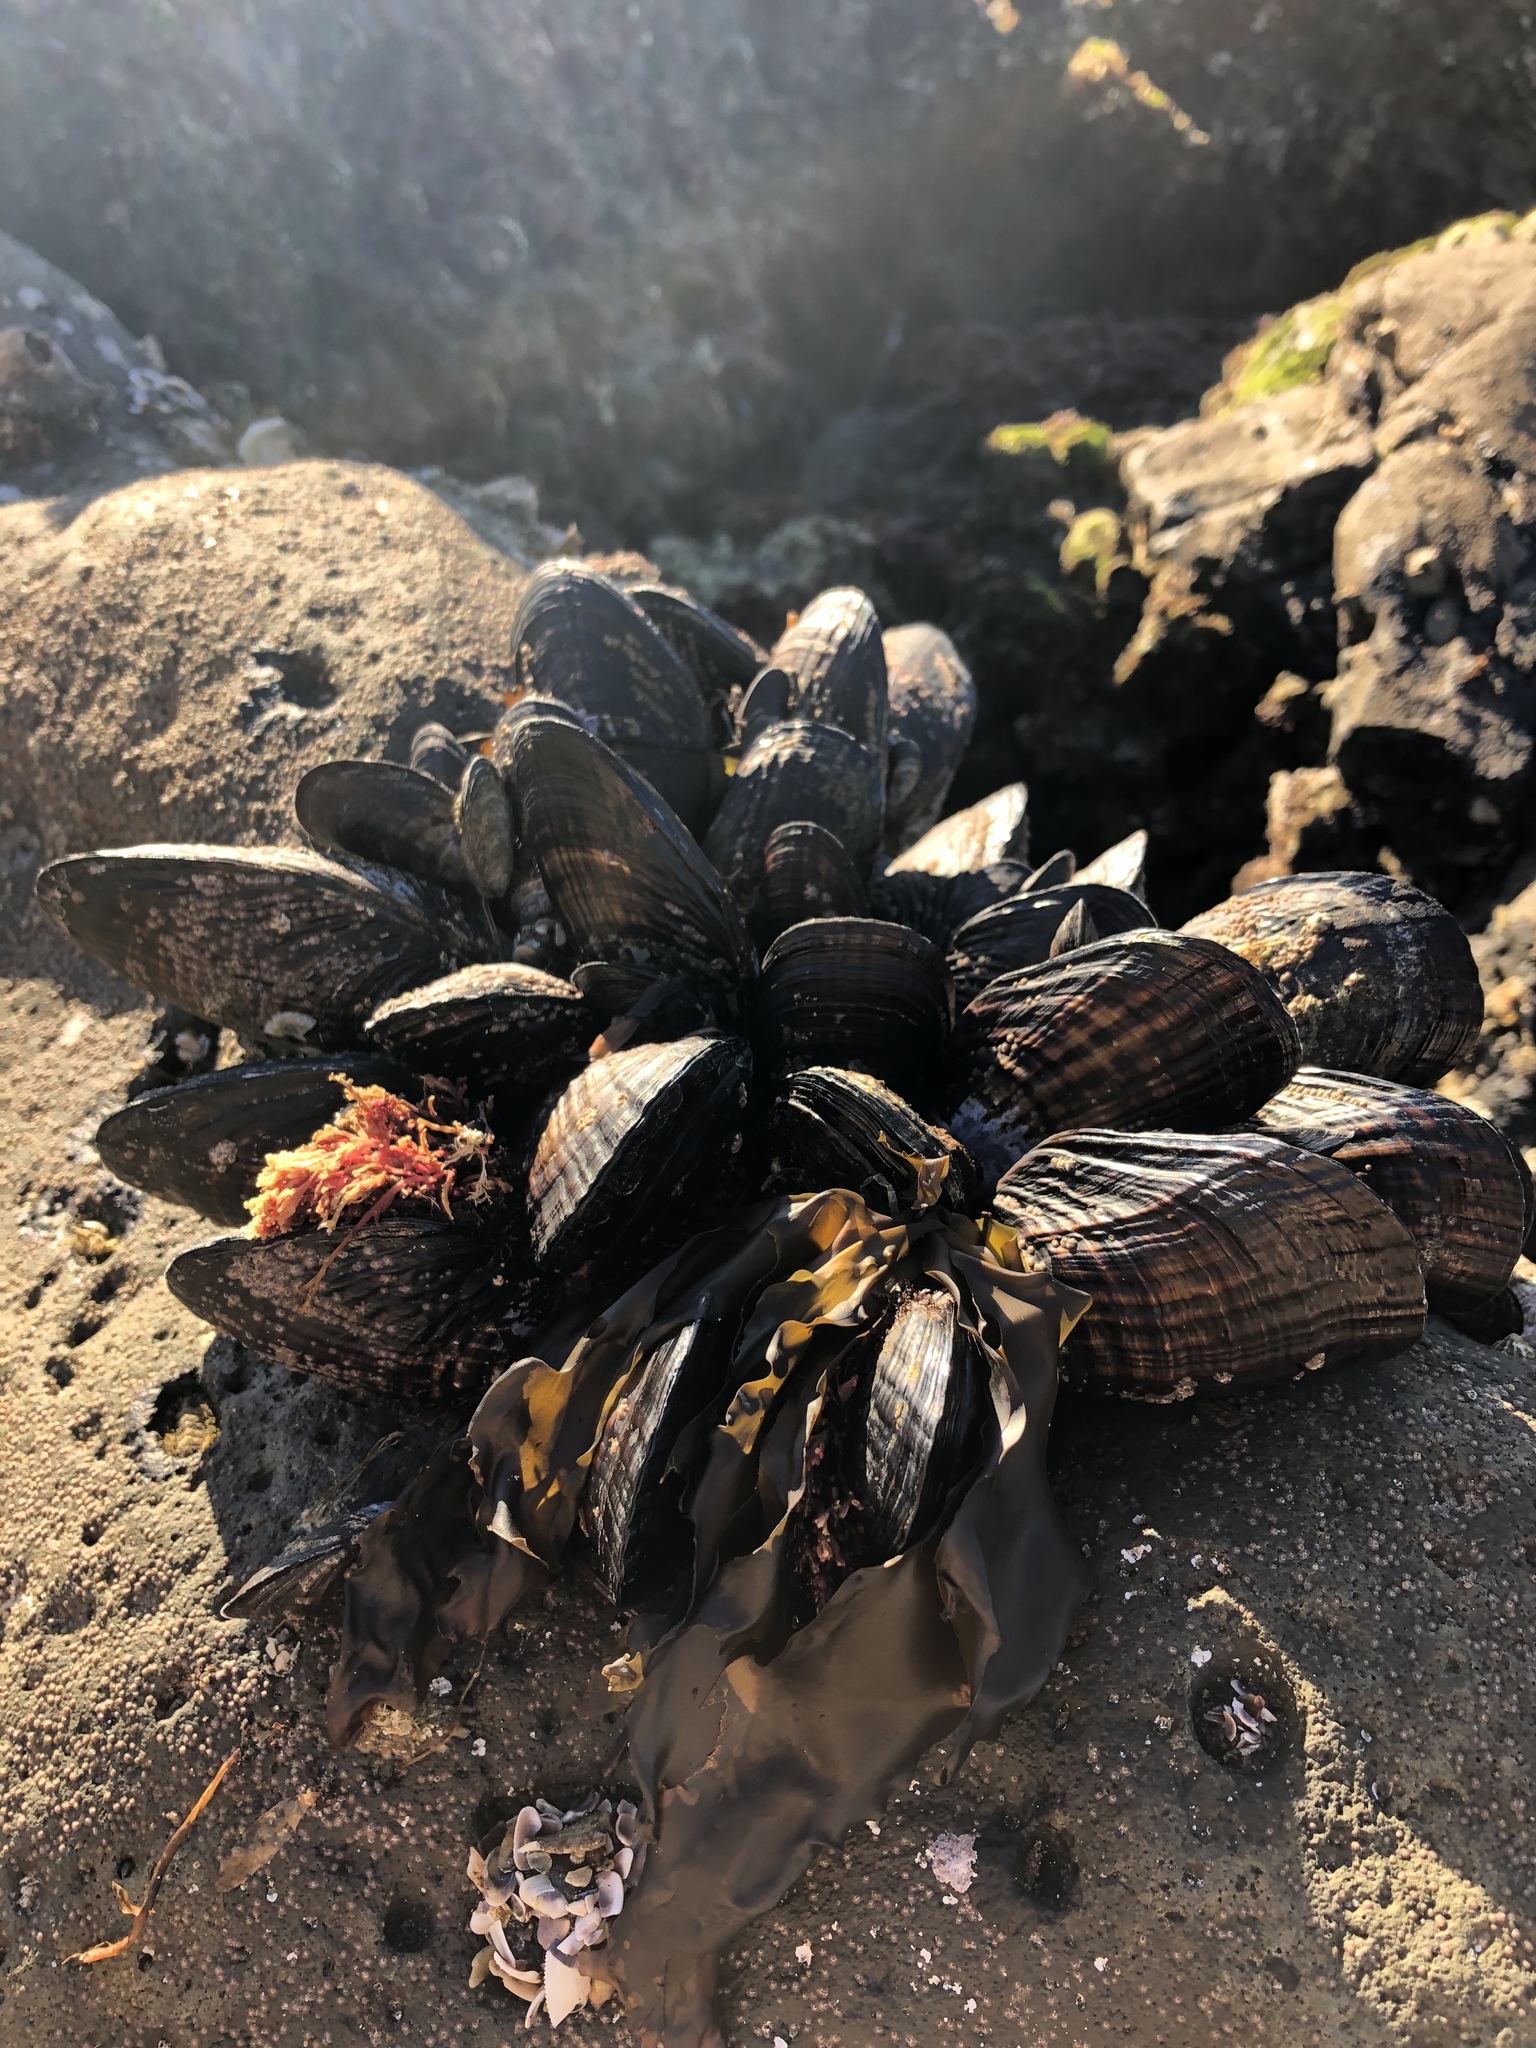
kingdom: Animalia
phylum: Mollusca
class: Bivalvia
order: Mytilida
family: Mytilidae
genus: Mytilus
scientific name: Mytilus californianus
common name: California mussel
